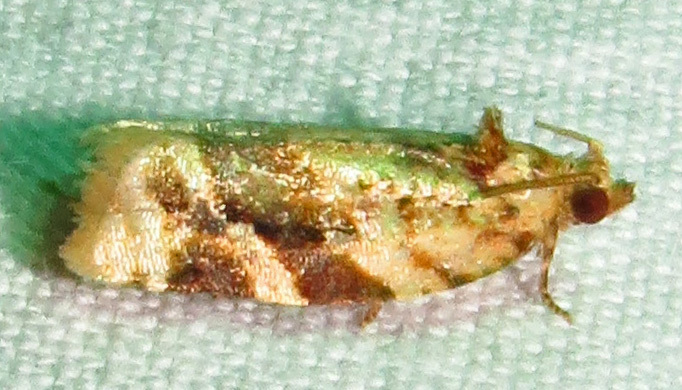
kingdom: Animalia
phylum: Arthropoda
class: Insecta
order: Lepidoptera
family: Tortricidae
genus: Argyrotaenia
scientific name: Argyrotaenia velutinana
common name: Red-banded leafroller moth
